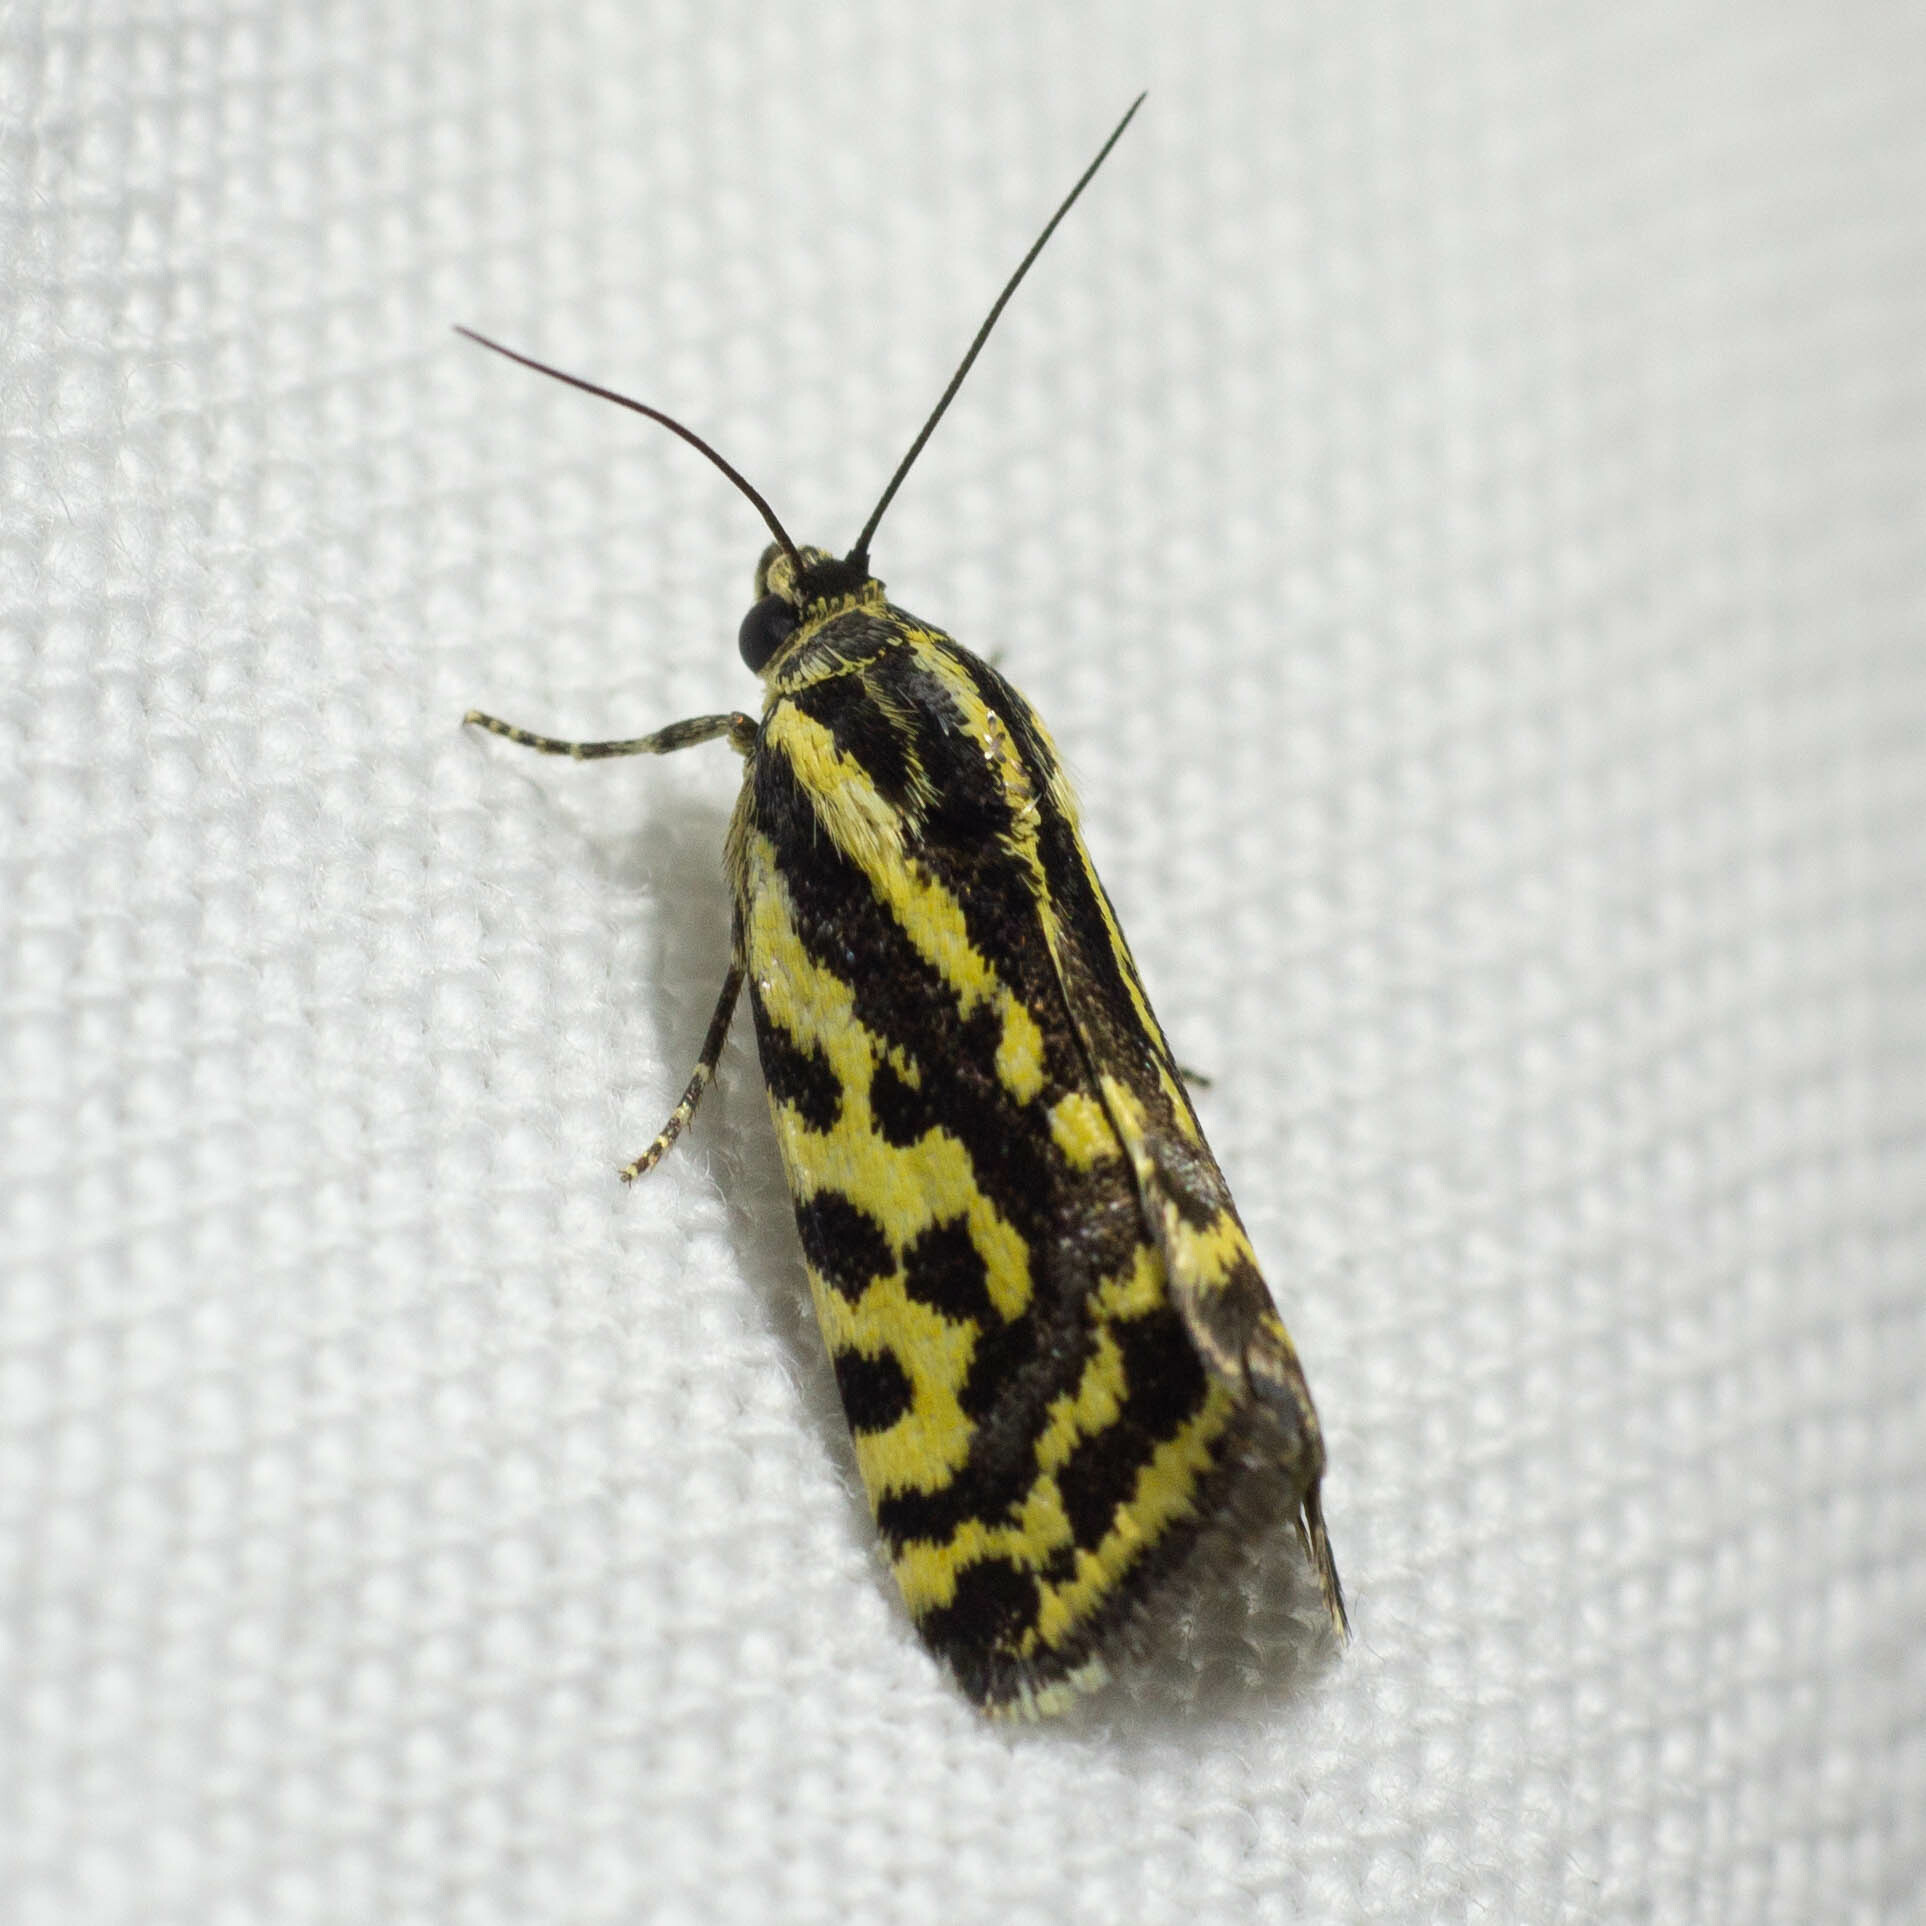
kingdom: Animalia
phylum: Arthropoda
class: Insecta
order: Lepidoptera
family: Noctuidae
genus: Acontia
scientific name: Acontia trabealis
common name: Spotted sulphur
